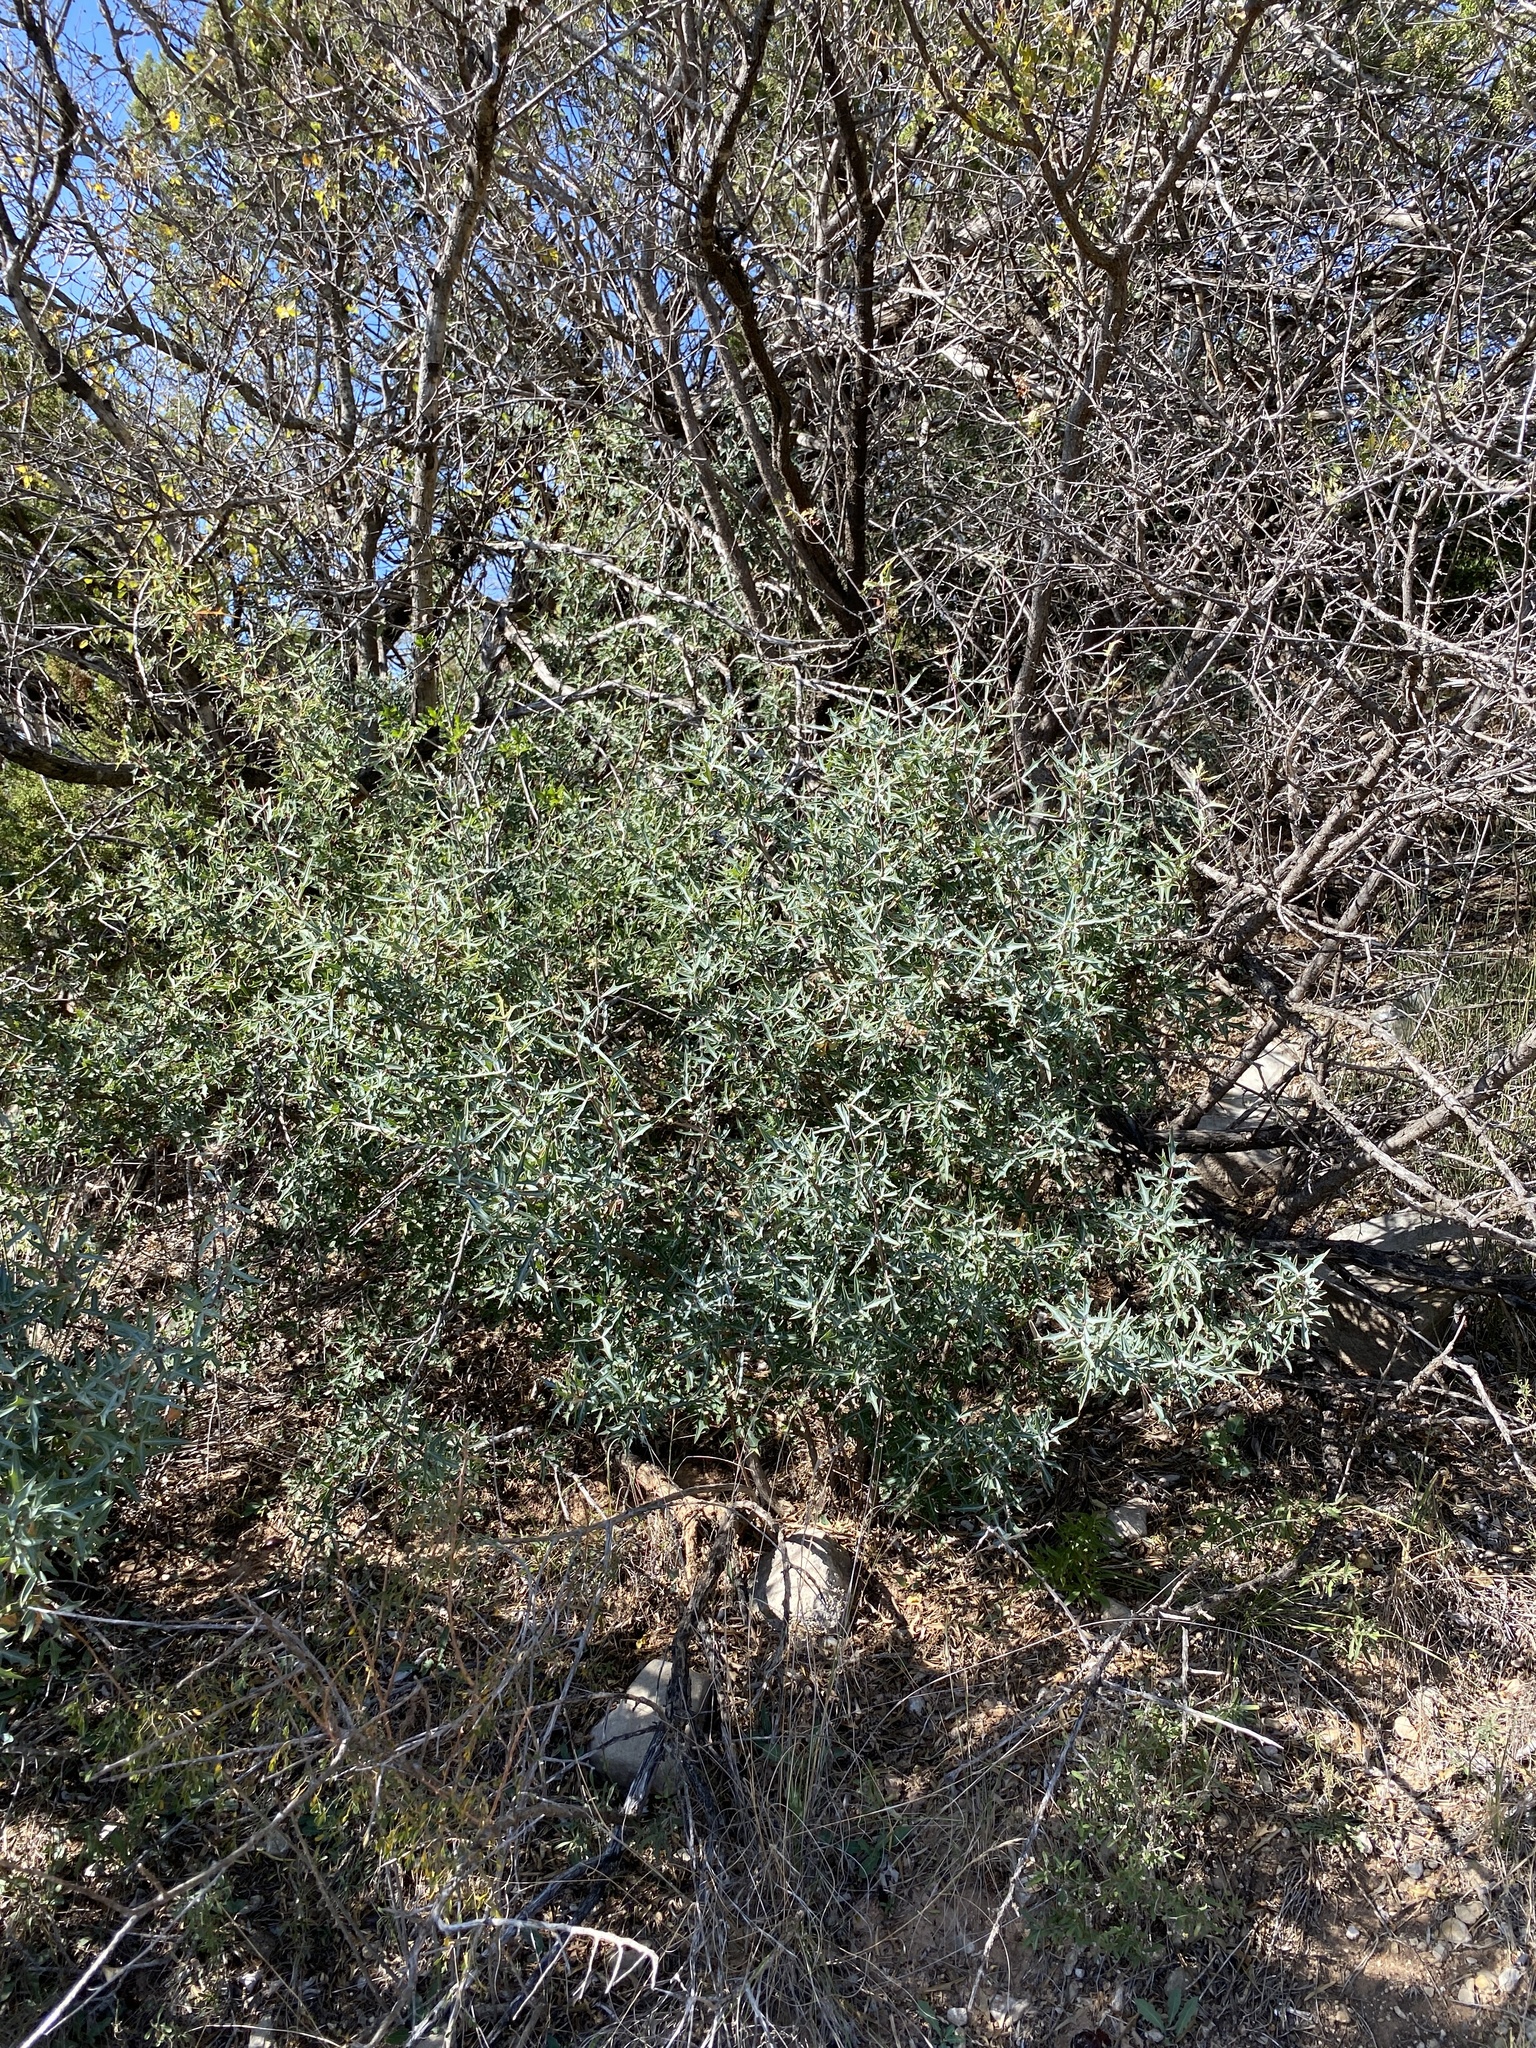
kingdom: Plantae
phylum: Tracheophyta
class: Magnoliopsida
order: Ranunculales
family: Berberidaceae
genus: Alloberberis
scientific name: Alloberberis trifoliolata
